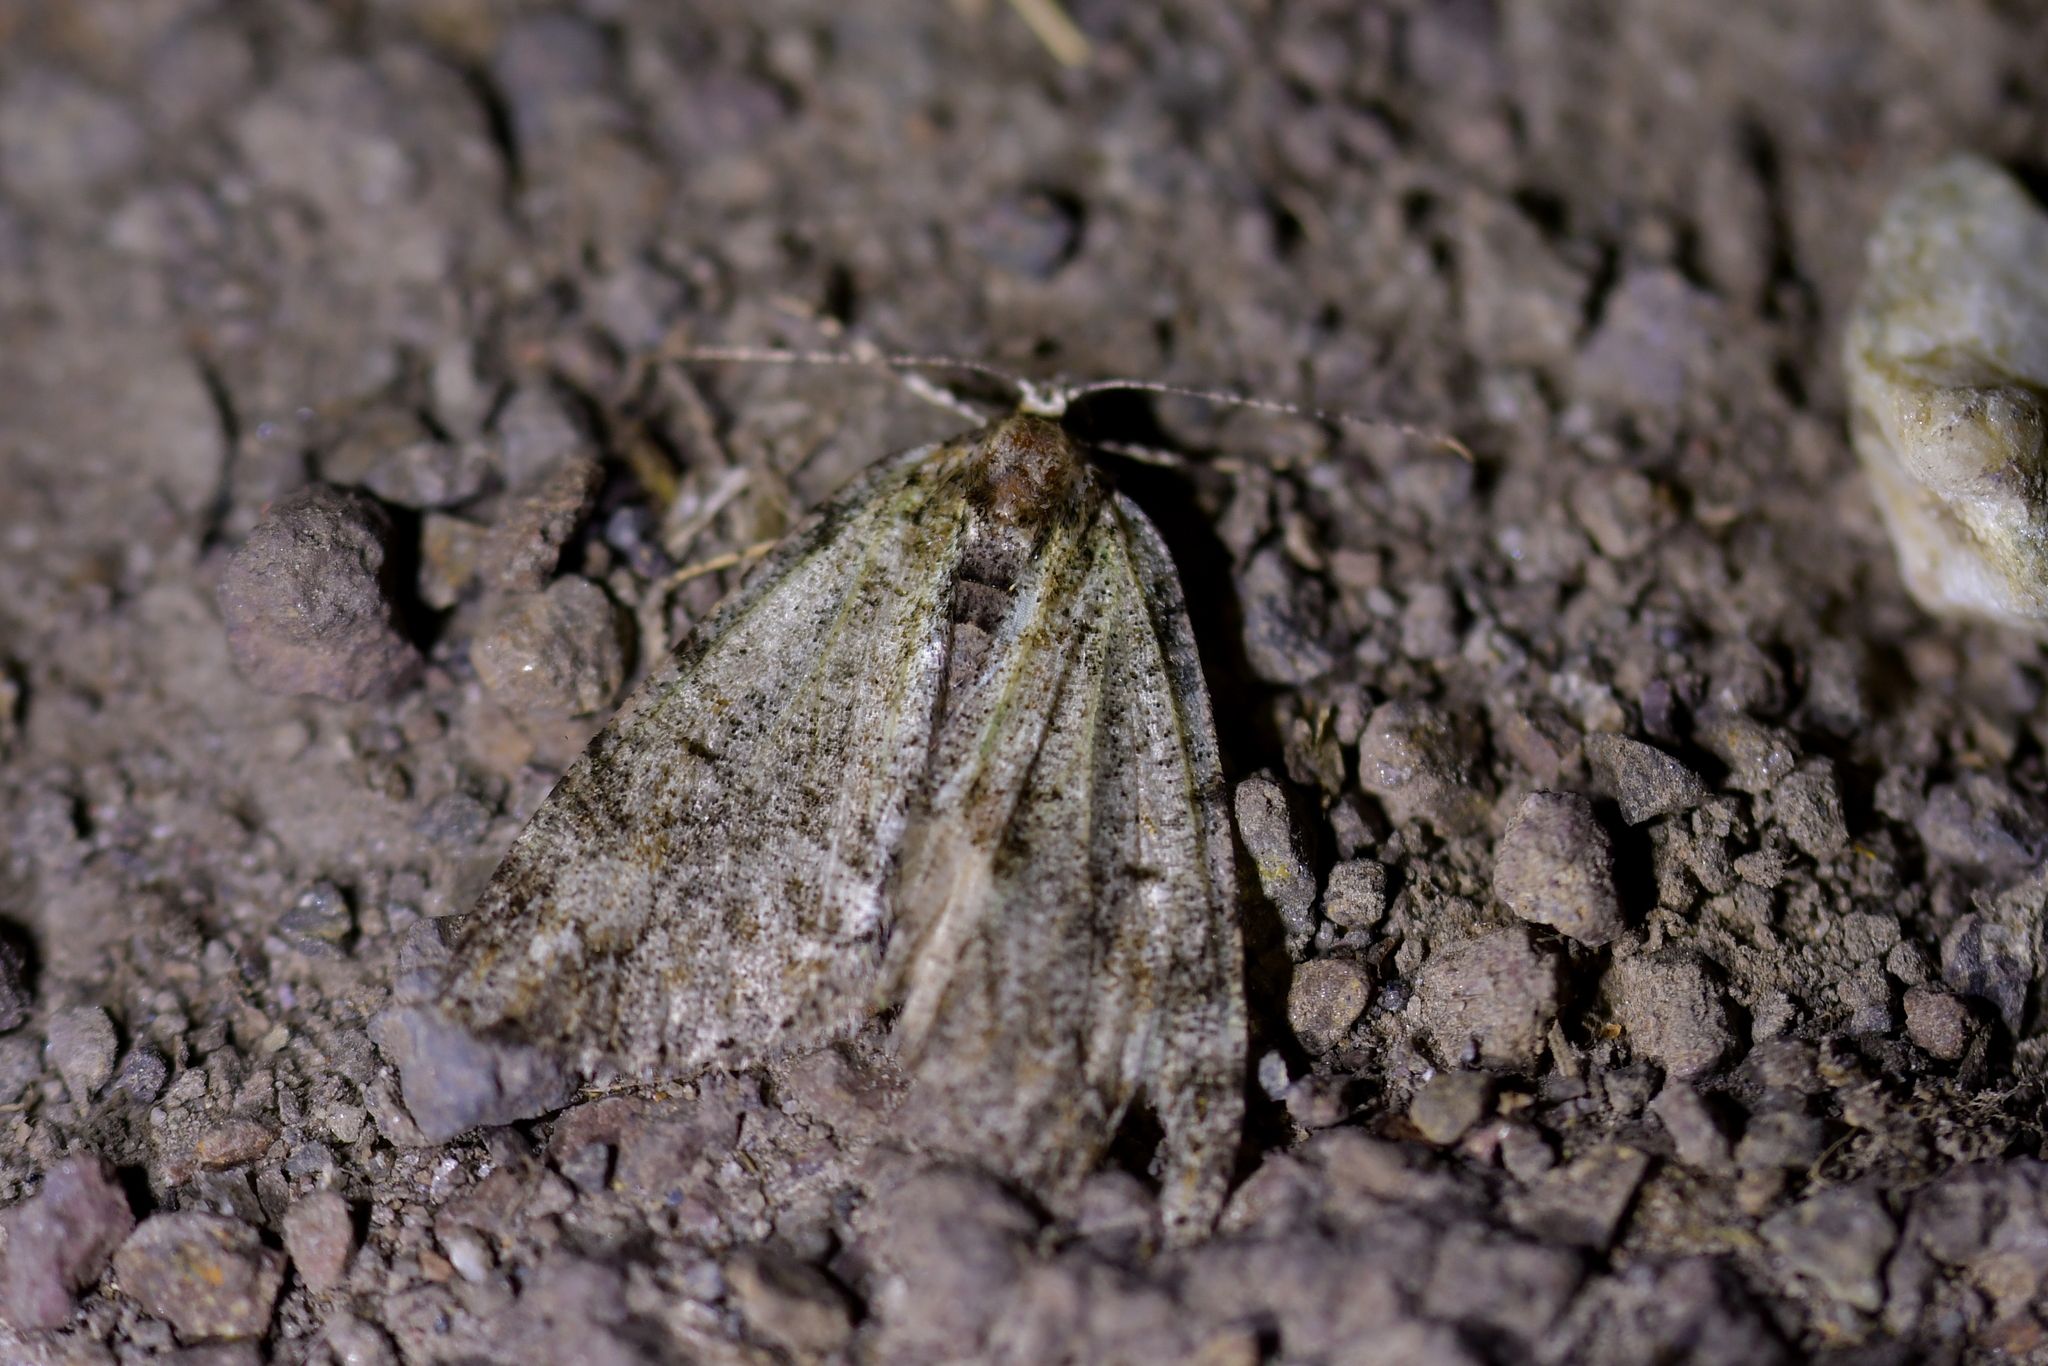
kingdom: Animalia
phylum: Arthropoda
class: Insecta
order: Lepidoptera
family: Geometridae
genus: Pseudocoremia
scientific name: Pseudocoremia suavis
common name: Common forest looper
